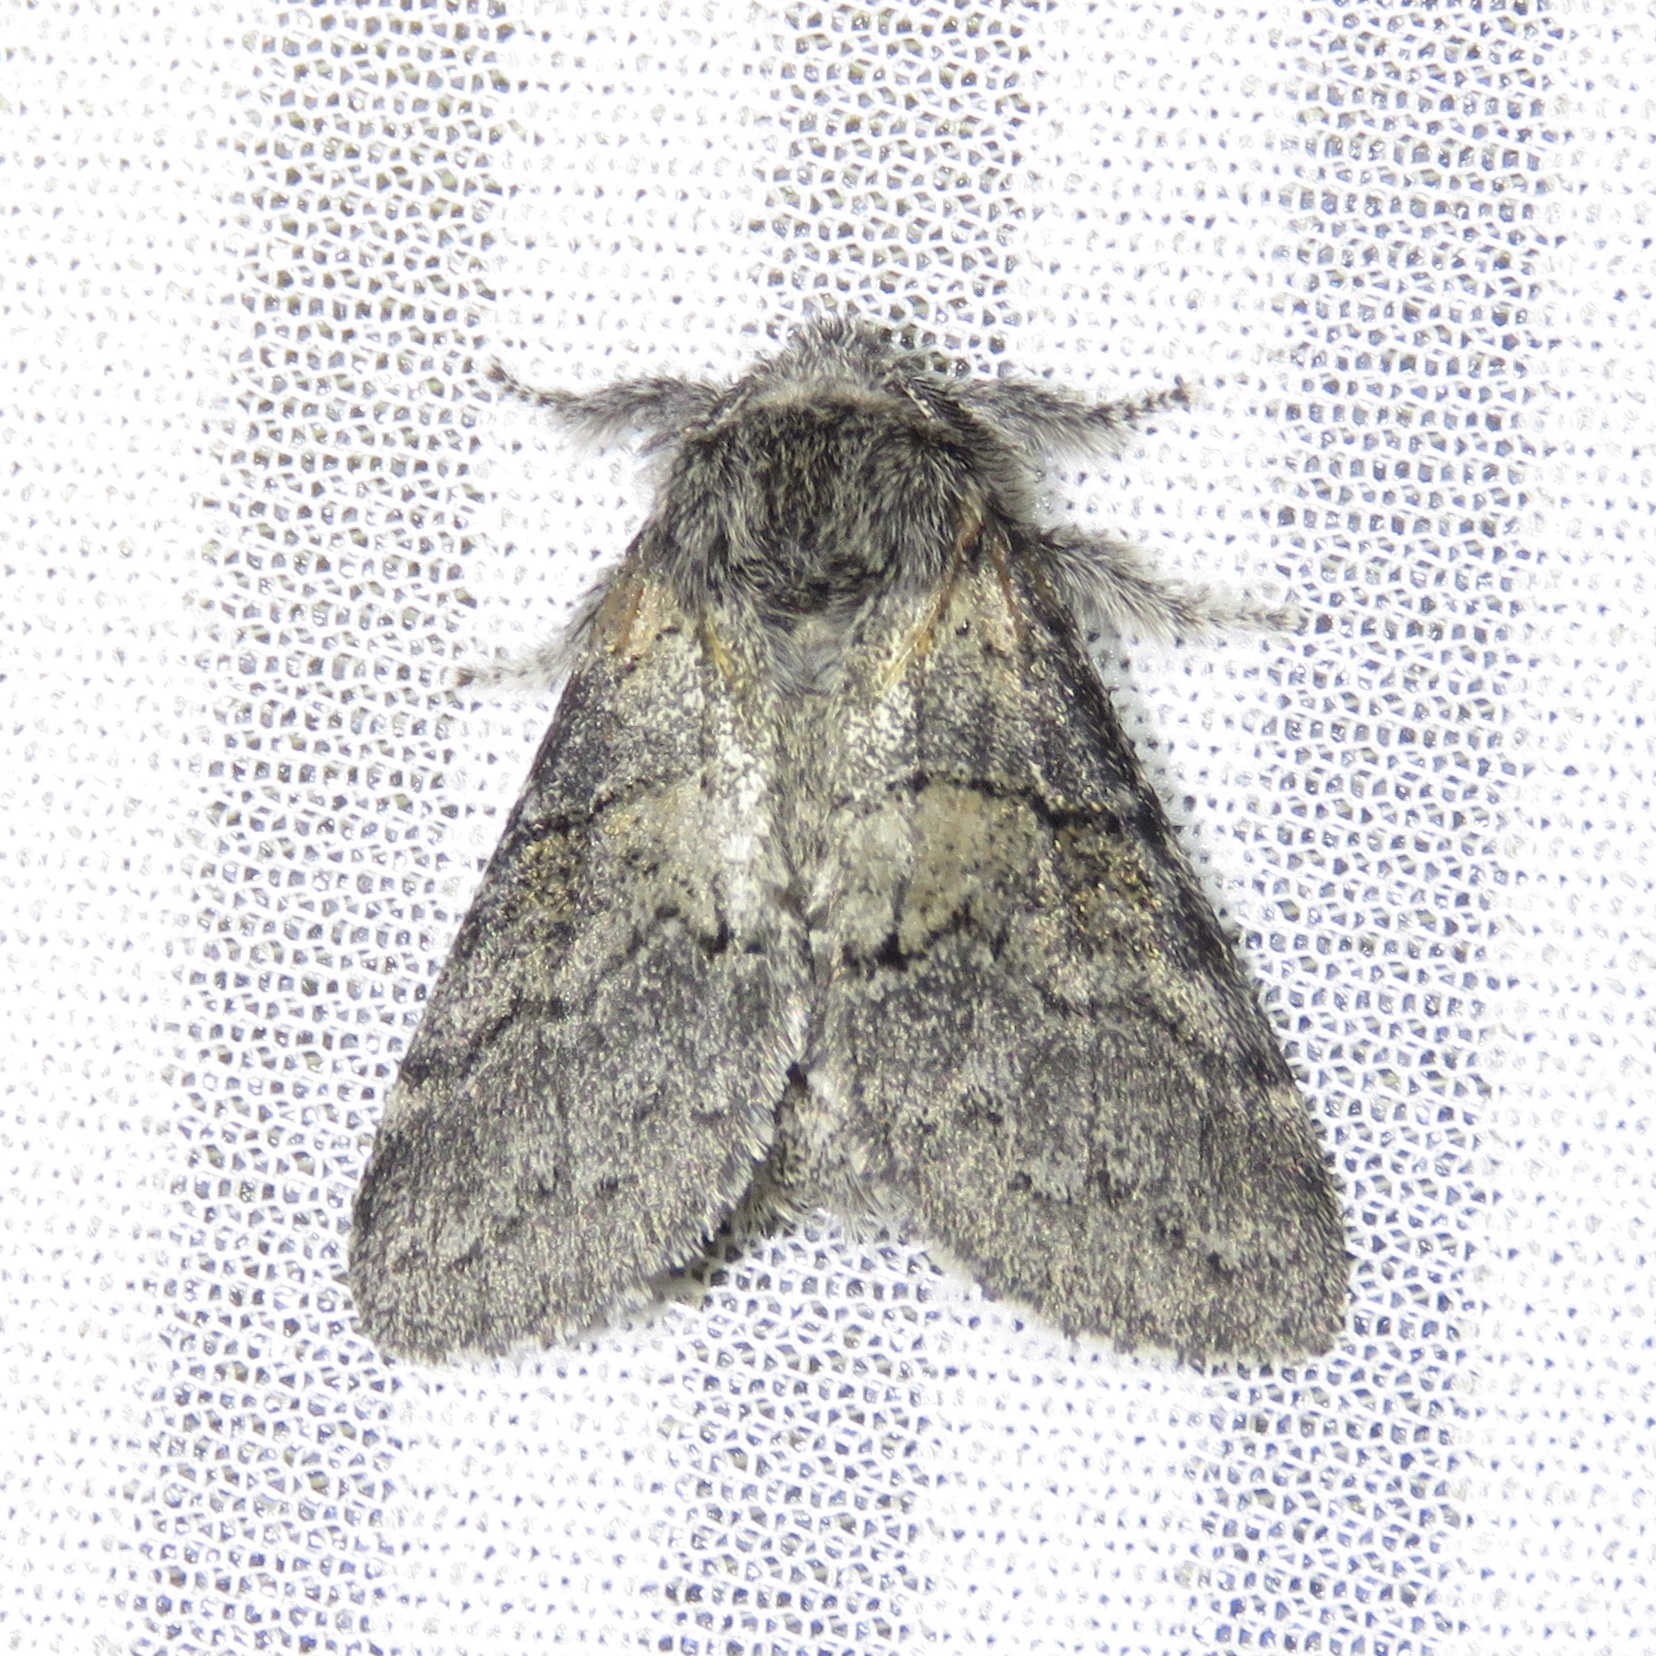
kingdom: Animalia
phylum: Arthropoda
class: Insecta
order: Lepidoptera
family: Notodontidae
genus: Gluphisia
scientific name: Gluphisia septentrionis
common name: Common gluphisia
